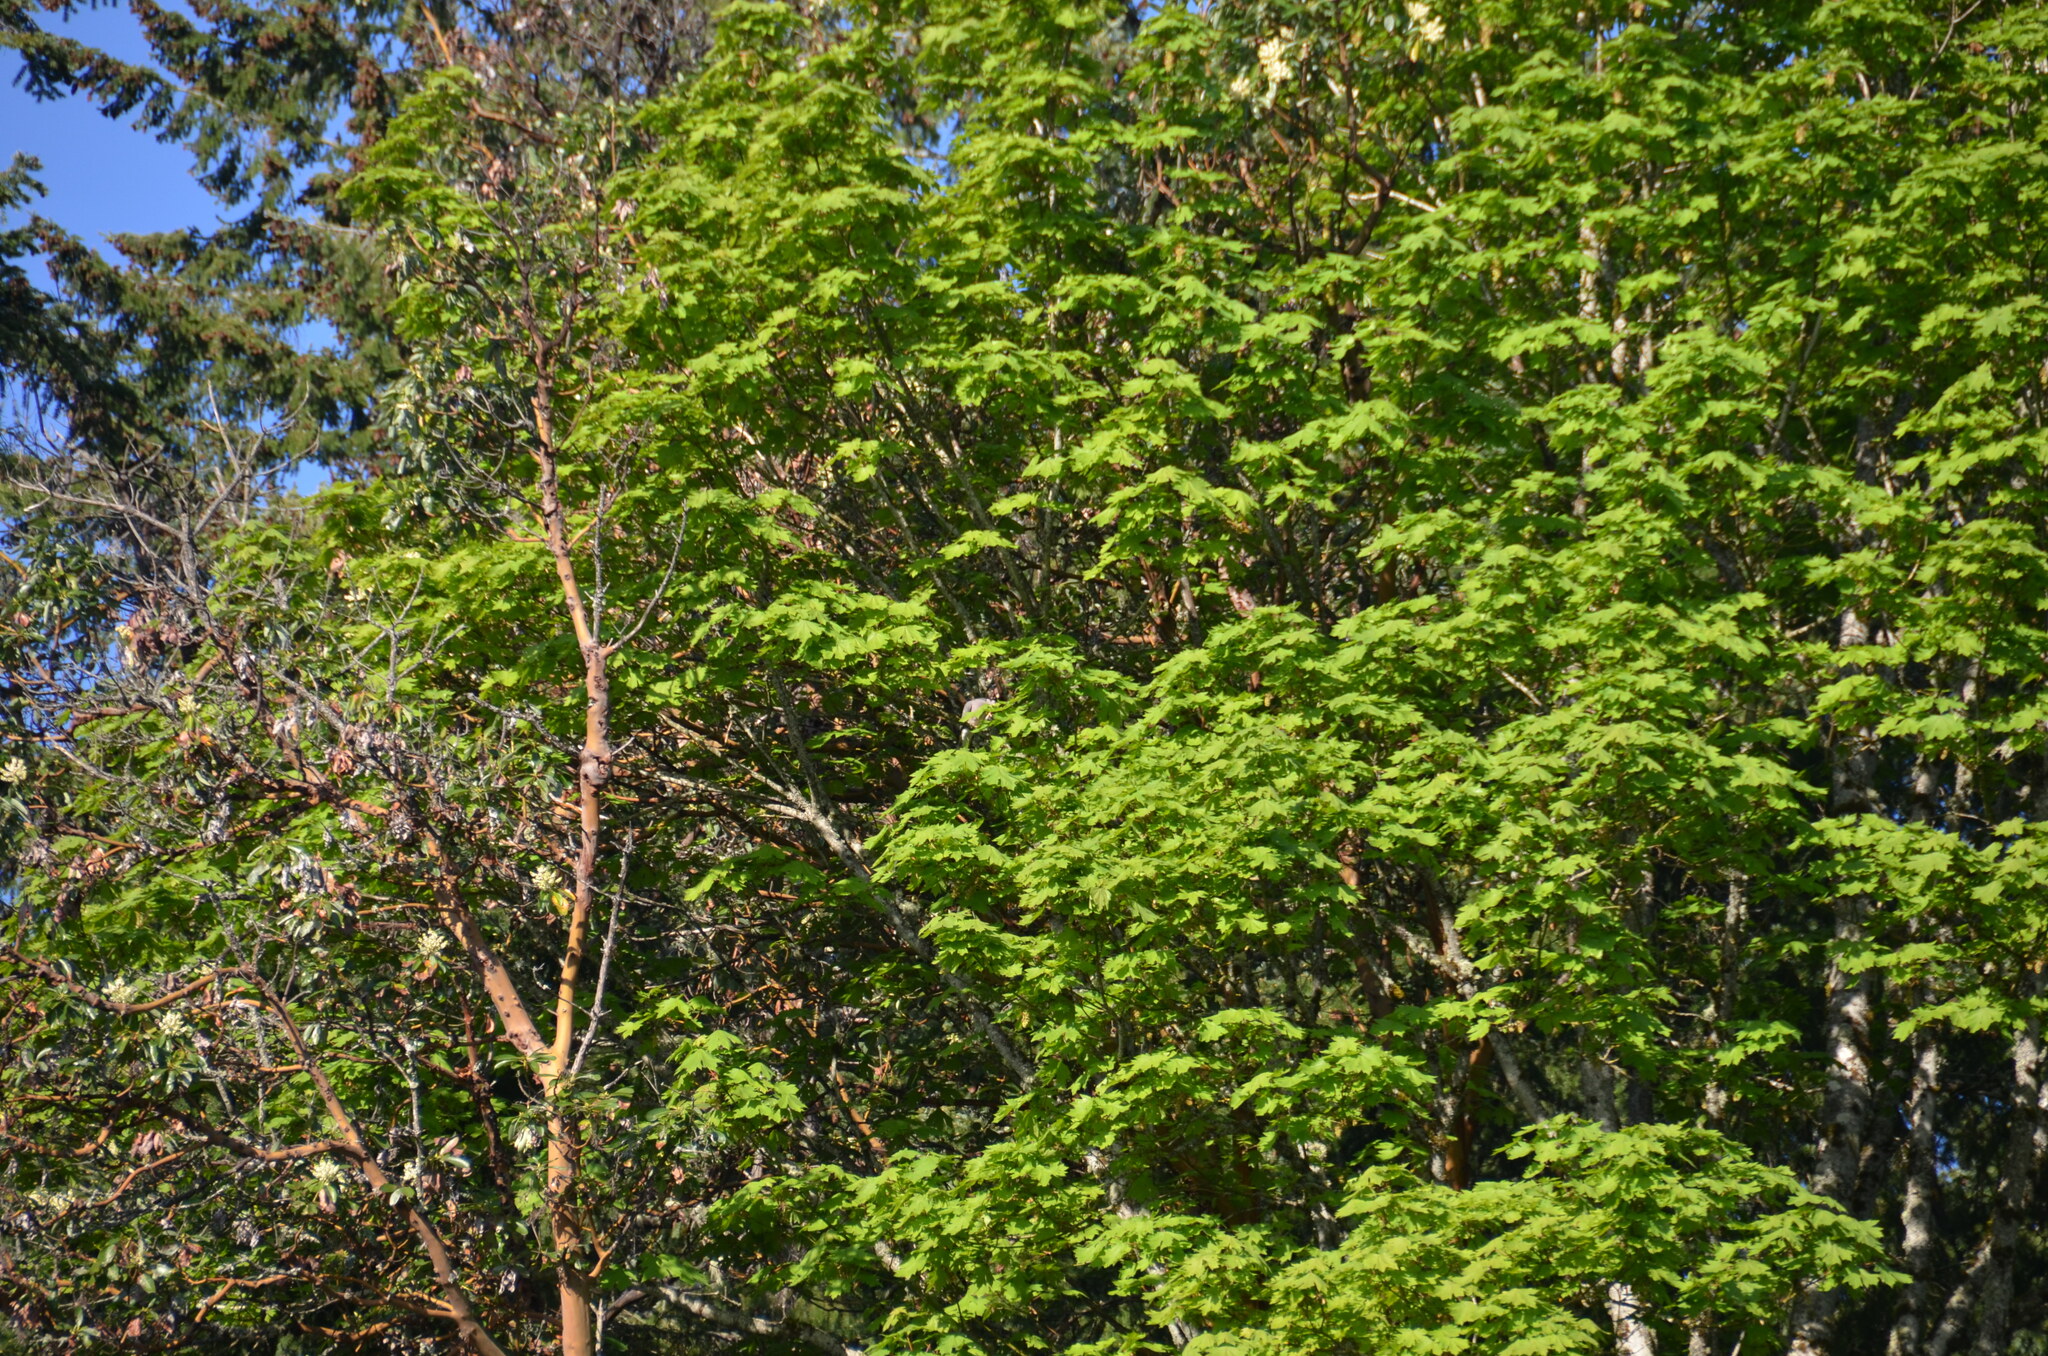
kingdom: Animalia
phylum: Chordata
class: Aves
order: Columbiformes
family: Columbidae
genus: Patagioenas
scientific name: Patagioenas fasciata
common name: Band-tailed pigeon
